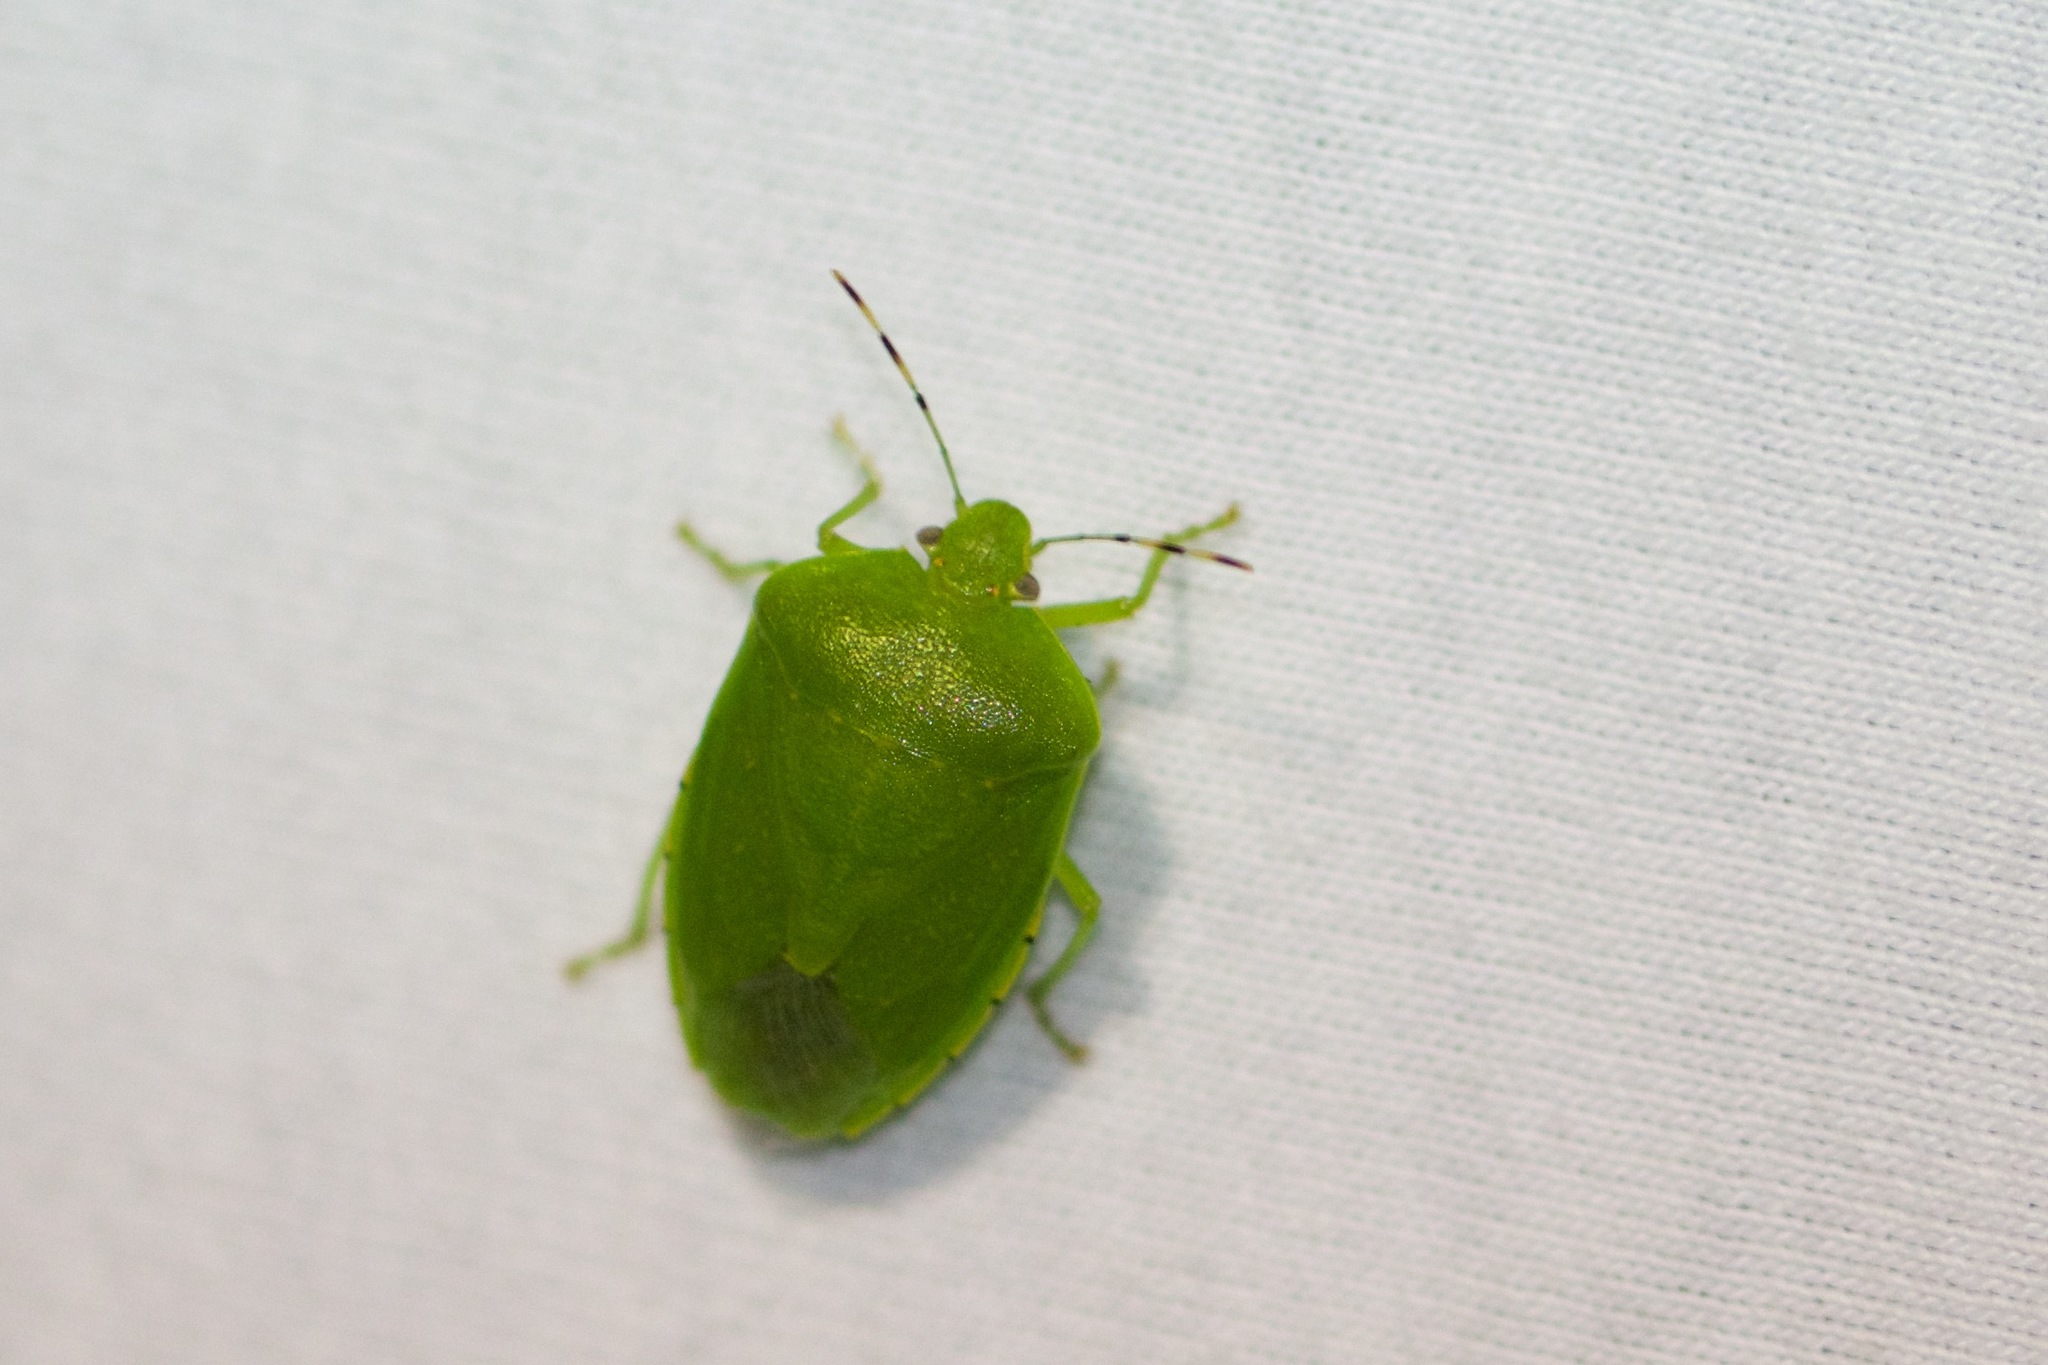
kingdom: Animalia
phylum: Arthropoda
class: Insecta
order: Hemiptera
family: Pentatomidae
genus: Chinavia
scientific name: Chinavia hilaris
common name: Green stink bug
